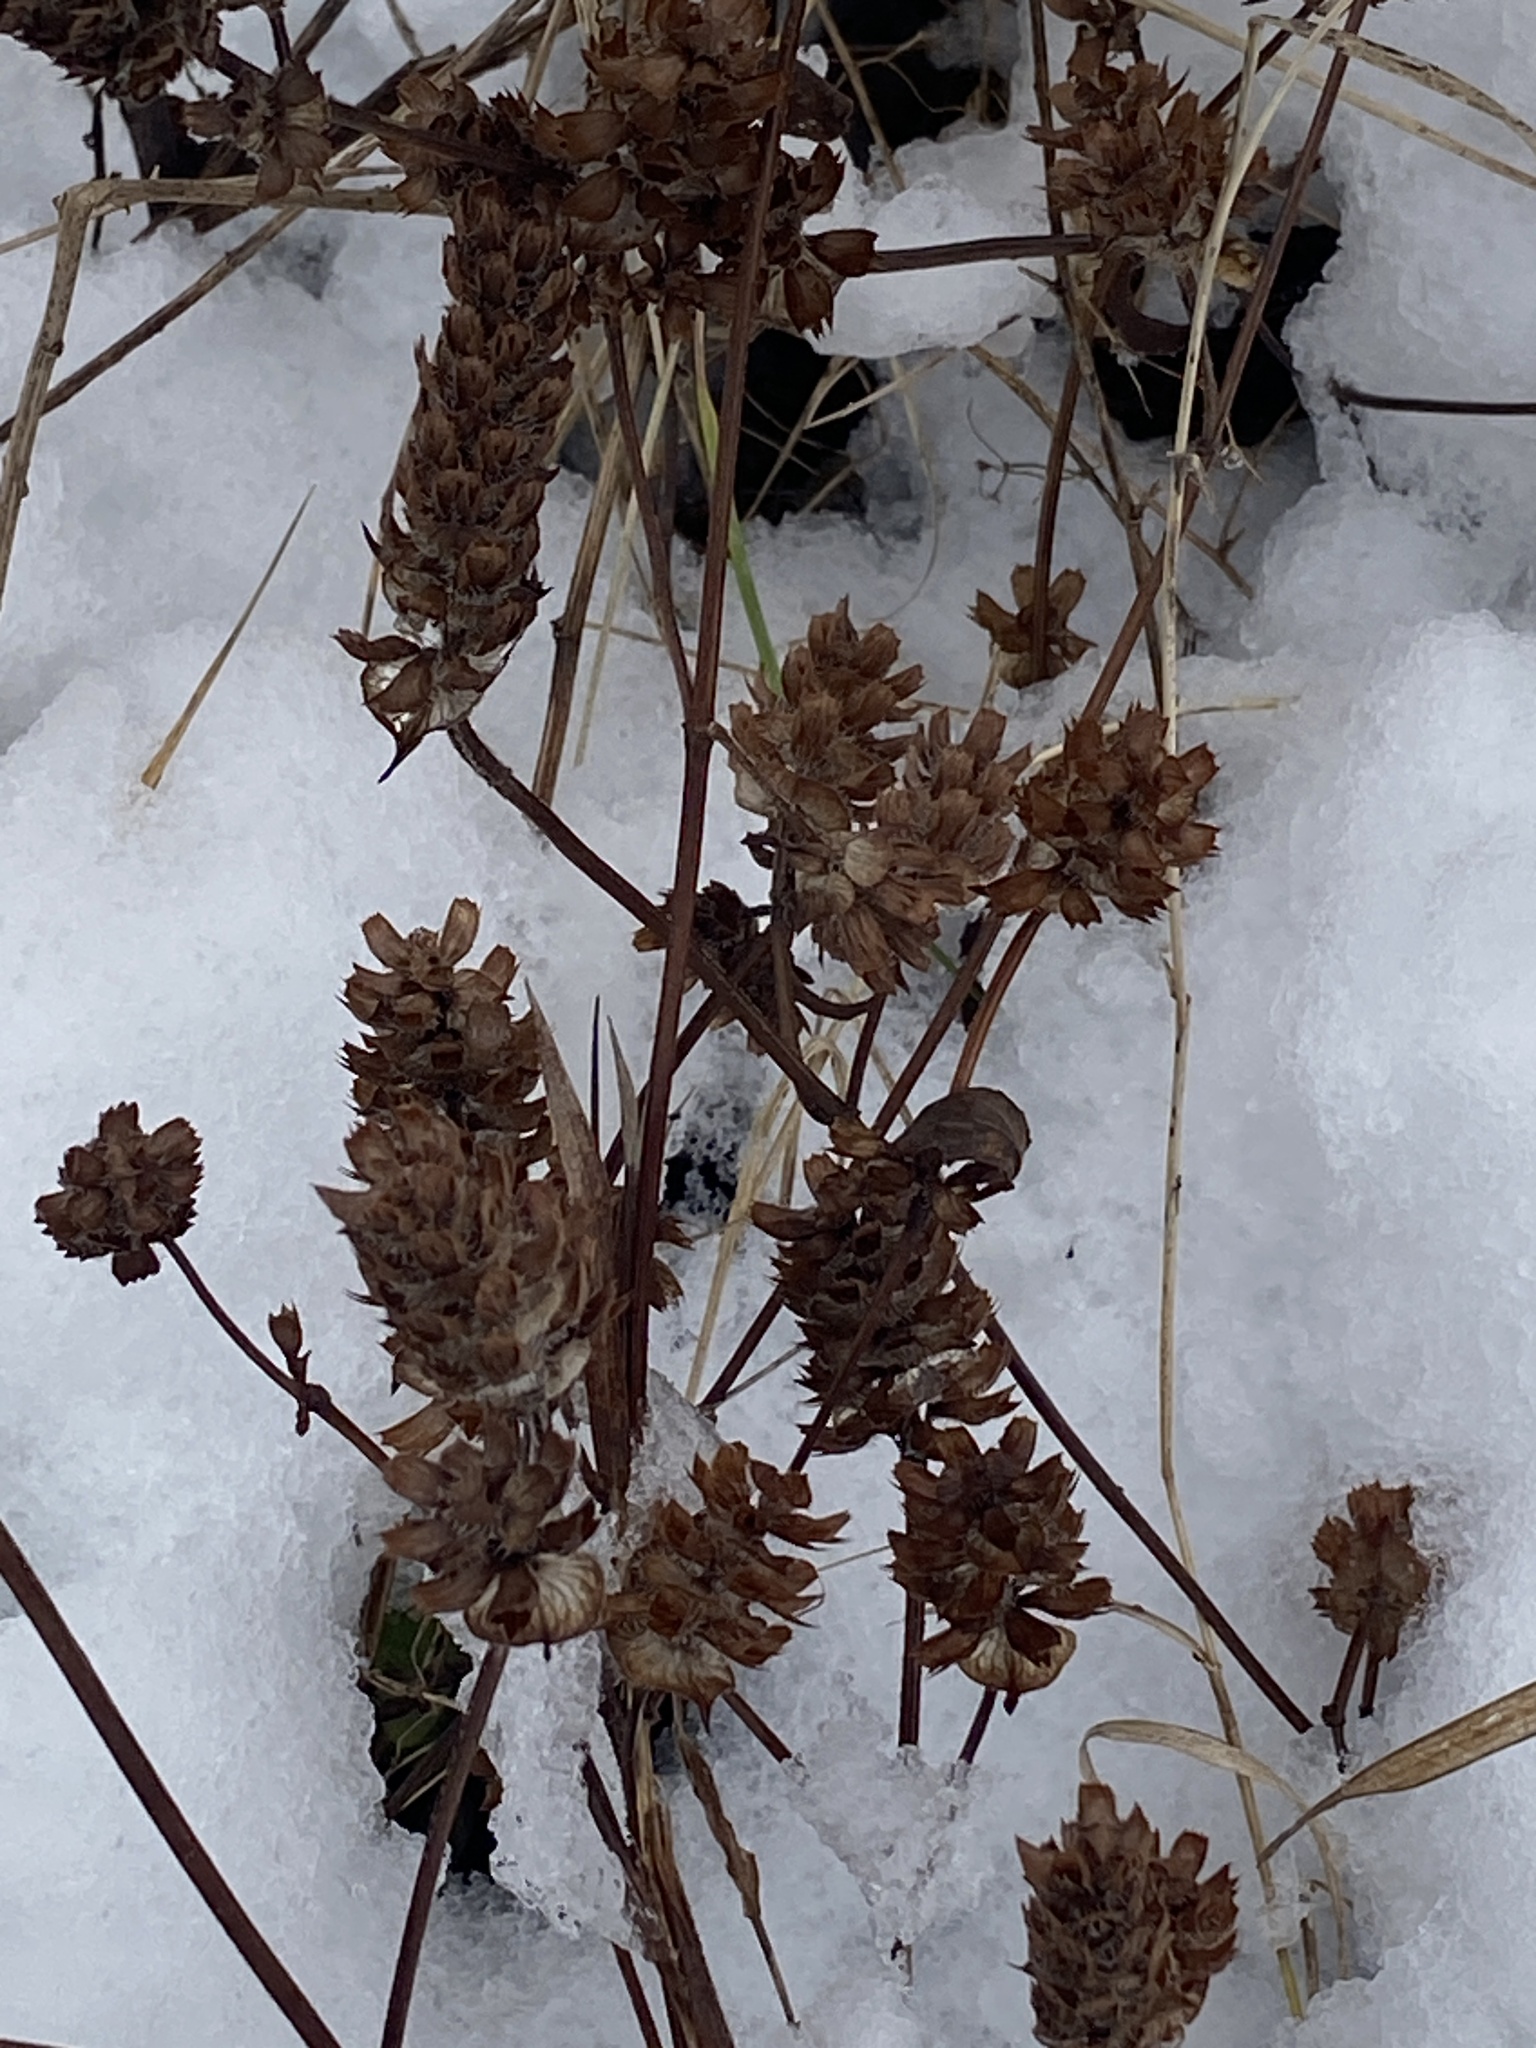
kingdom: Plantae
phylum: Tracheophyta
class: Magnoliopsida
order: Lamiales
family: Lamiaceae
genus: Prunella
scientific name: Prunella vulgaris
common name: Heal-all
